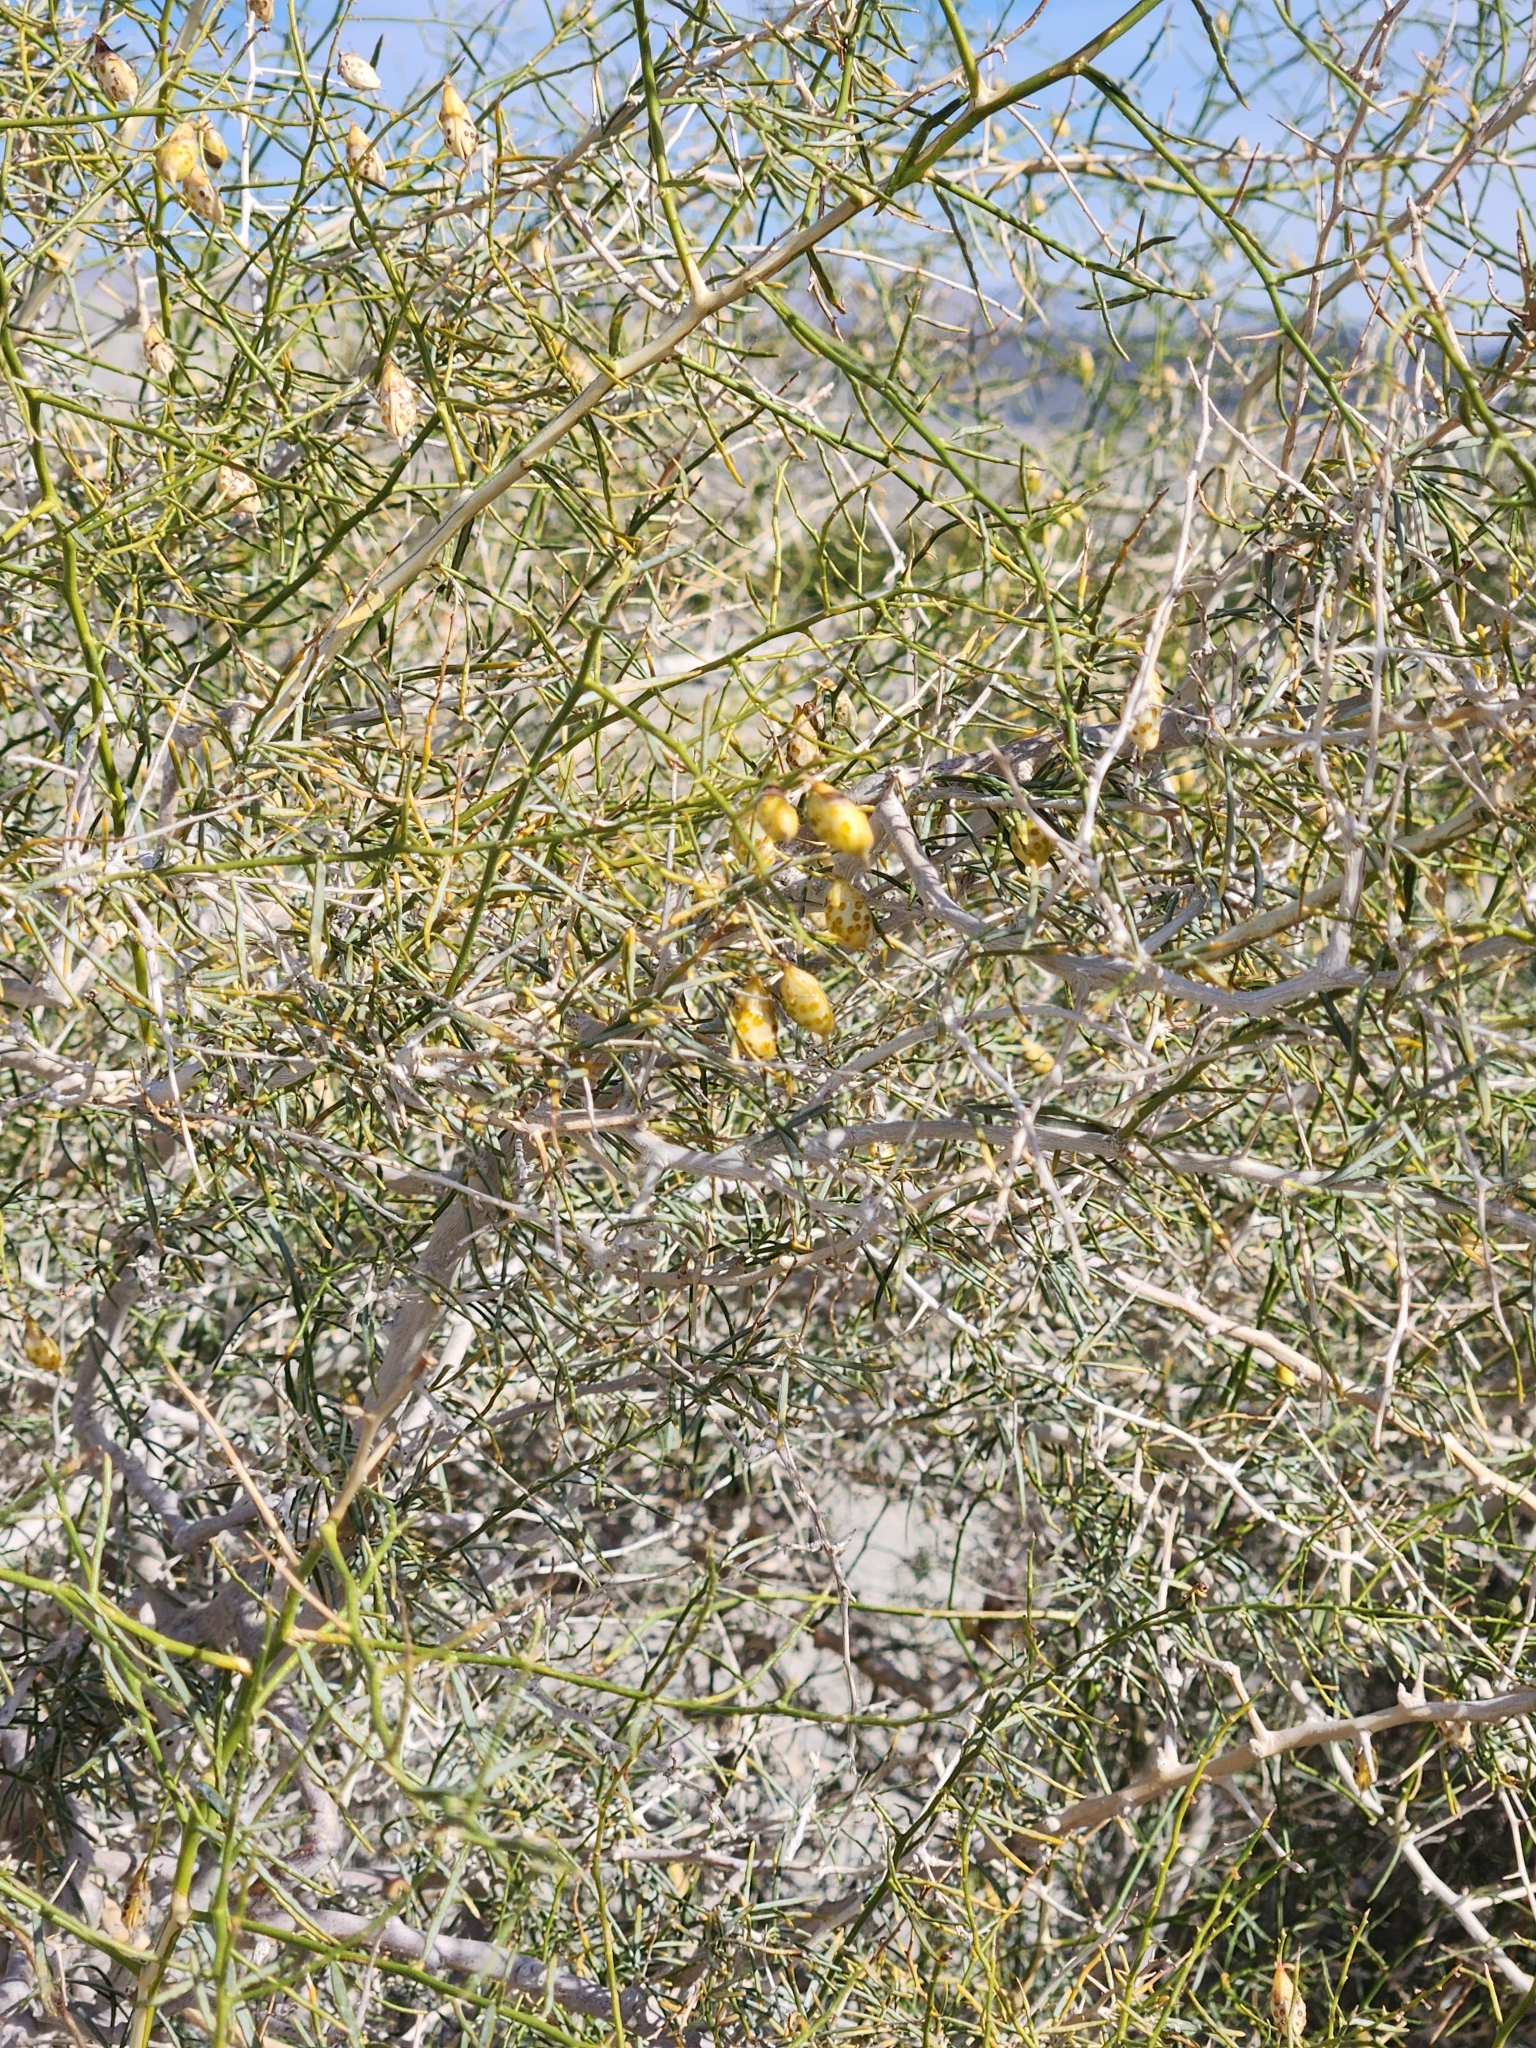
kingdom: Plantae
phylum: Tracheophyta
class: Magnoliopsida
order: Fabales
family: Fabaceae
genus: Psorothamnus
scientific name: Psorothamnus schottii
